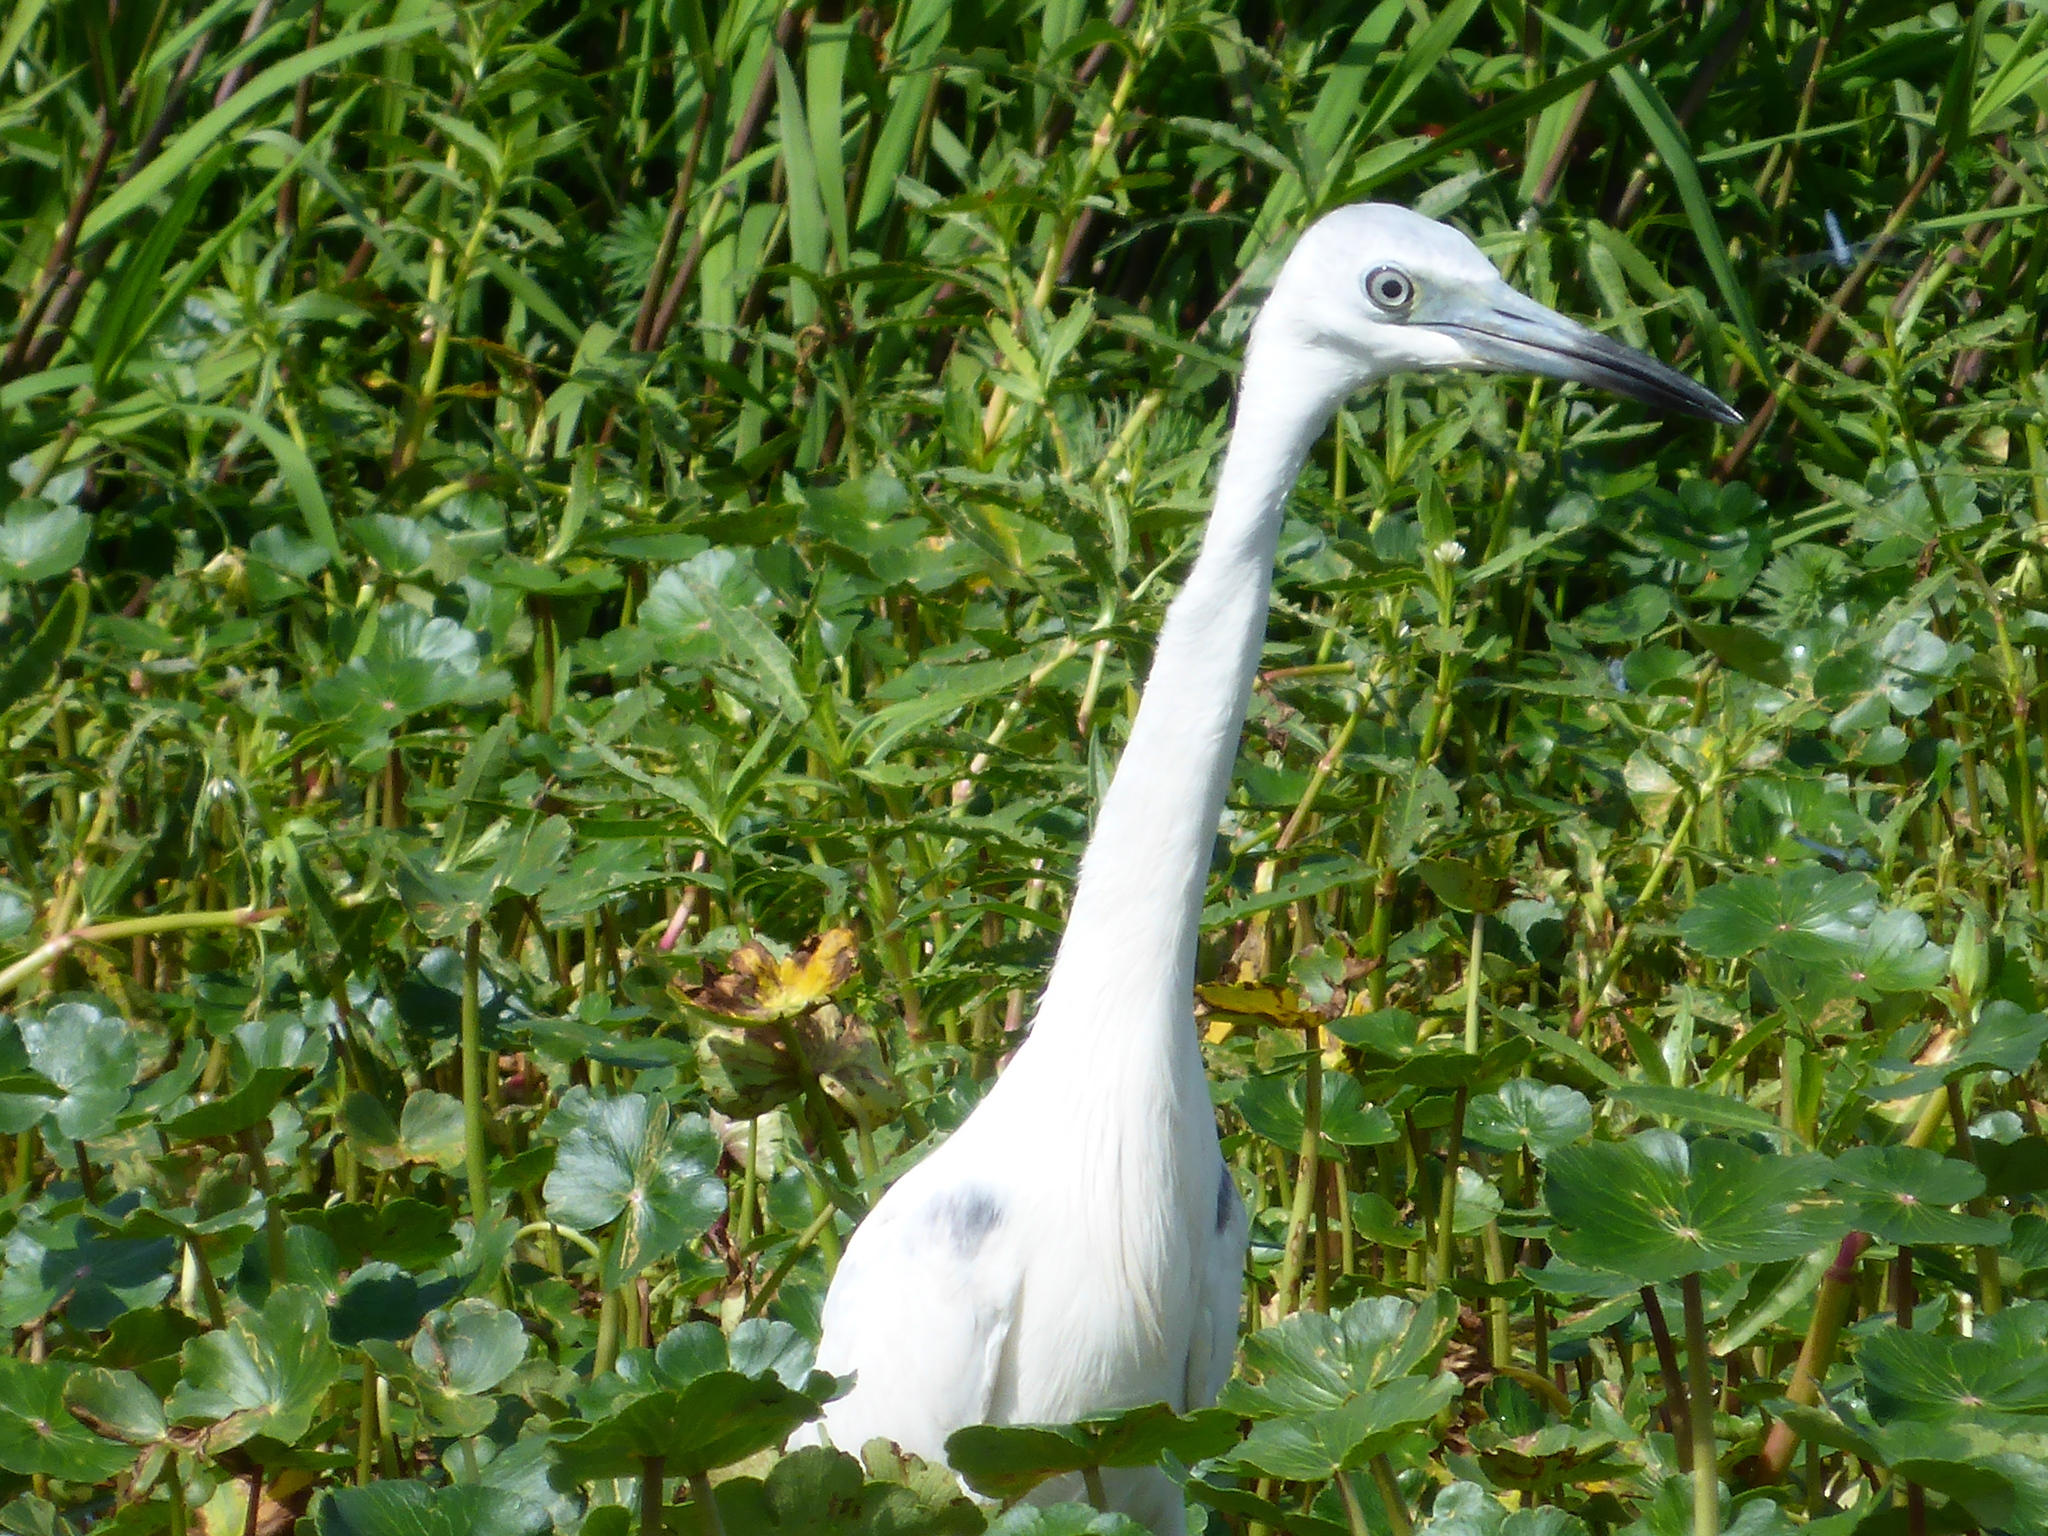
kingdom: Animalia
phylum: Chordata
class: Aves
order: Pelecaniformes
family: Ardeidae
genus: Egretta
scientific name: Egretta caerulea
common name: Little blue heron
